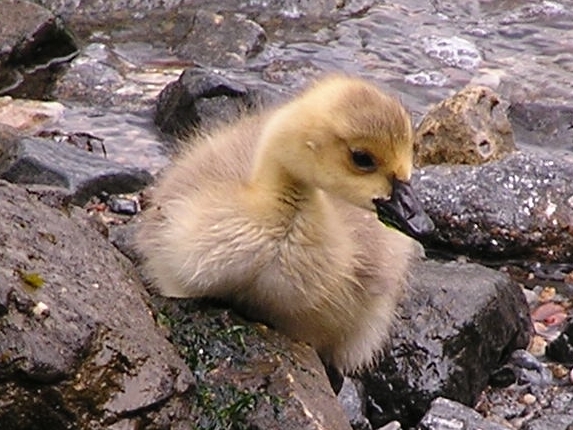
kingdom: Animalia
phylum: Chordata
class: Aves
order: Anseriformes
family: Anatidae
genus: Branta
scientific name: Branta canadensis
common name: Canada goose
